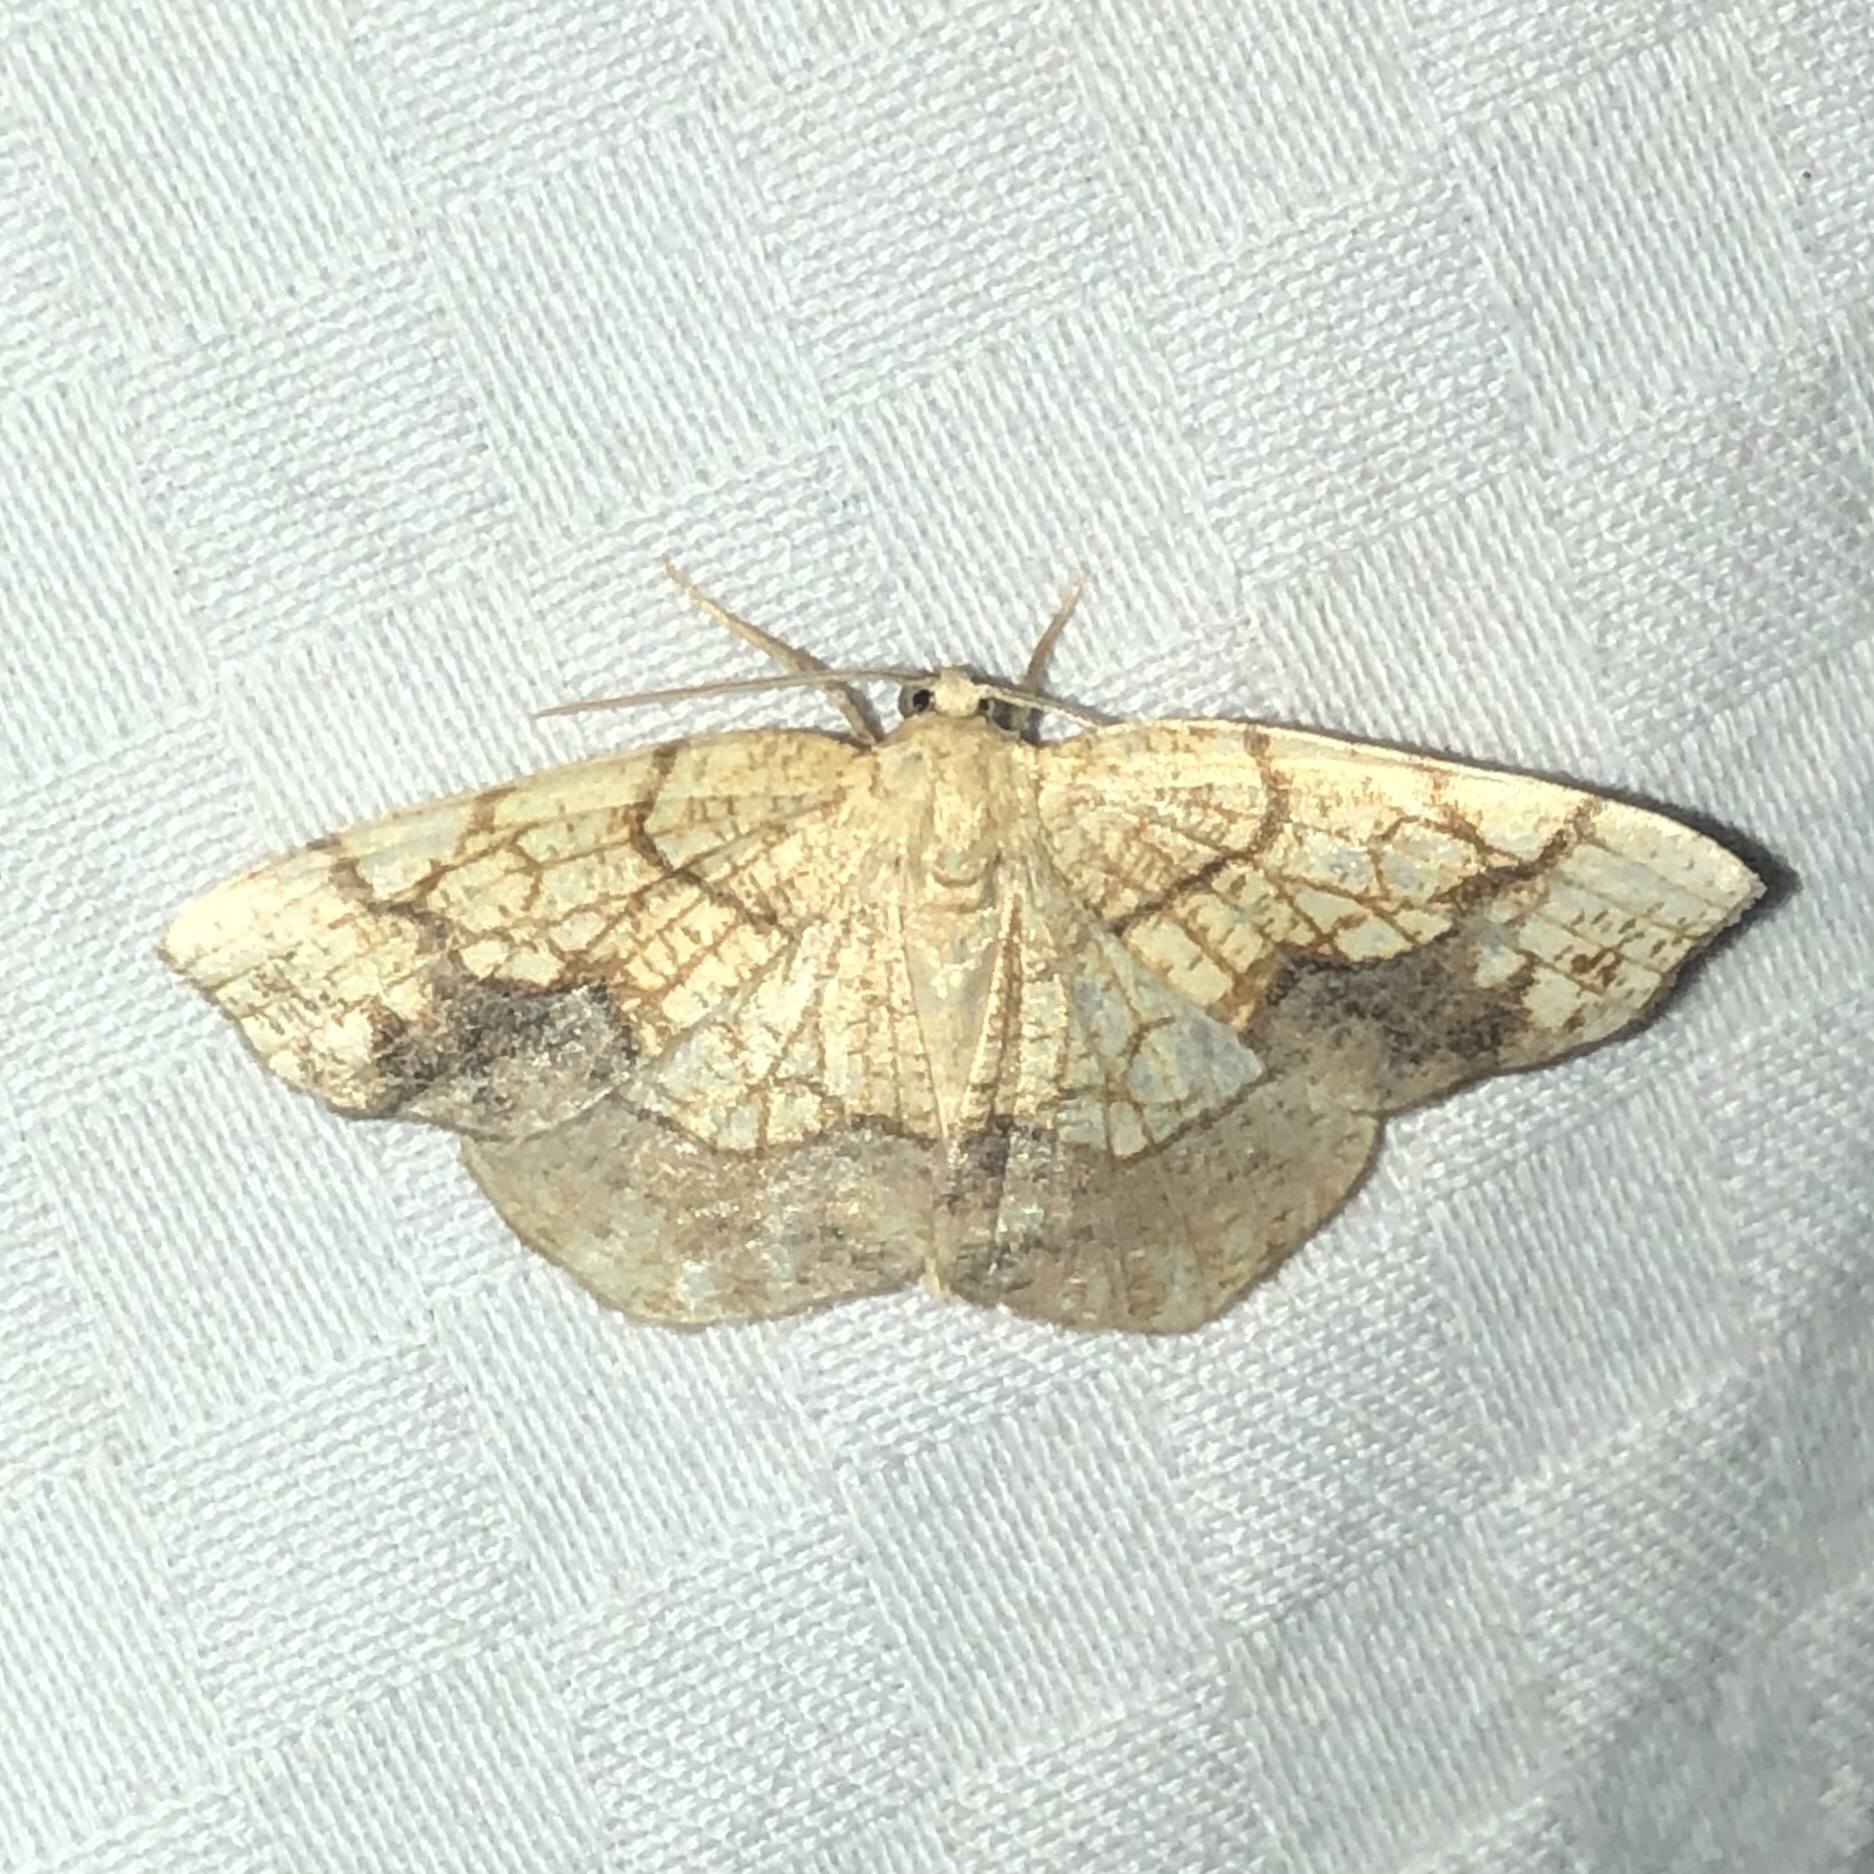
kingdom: Animalia
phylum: Arthropoda
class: Insecta
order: Lepidoptera
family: Geometridae
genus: Nematocampa
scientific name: Nematocampa resistaria
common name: Horned spanworm moth
